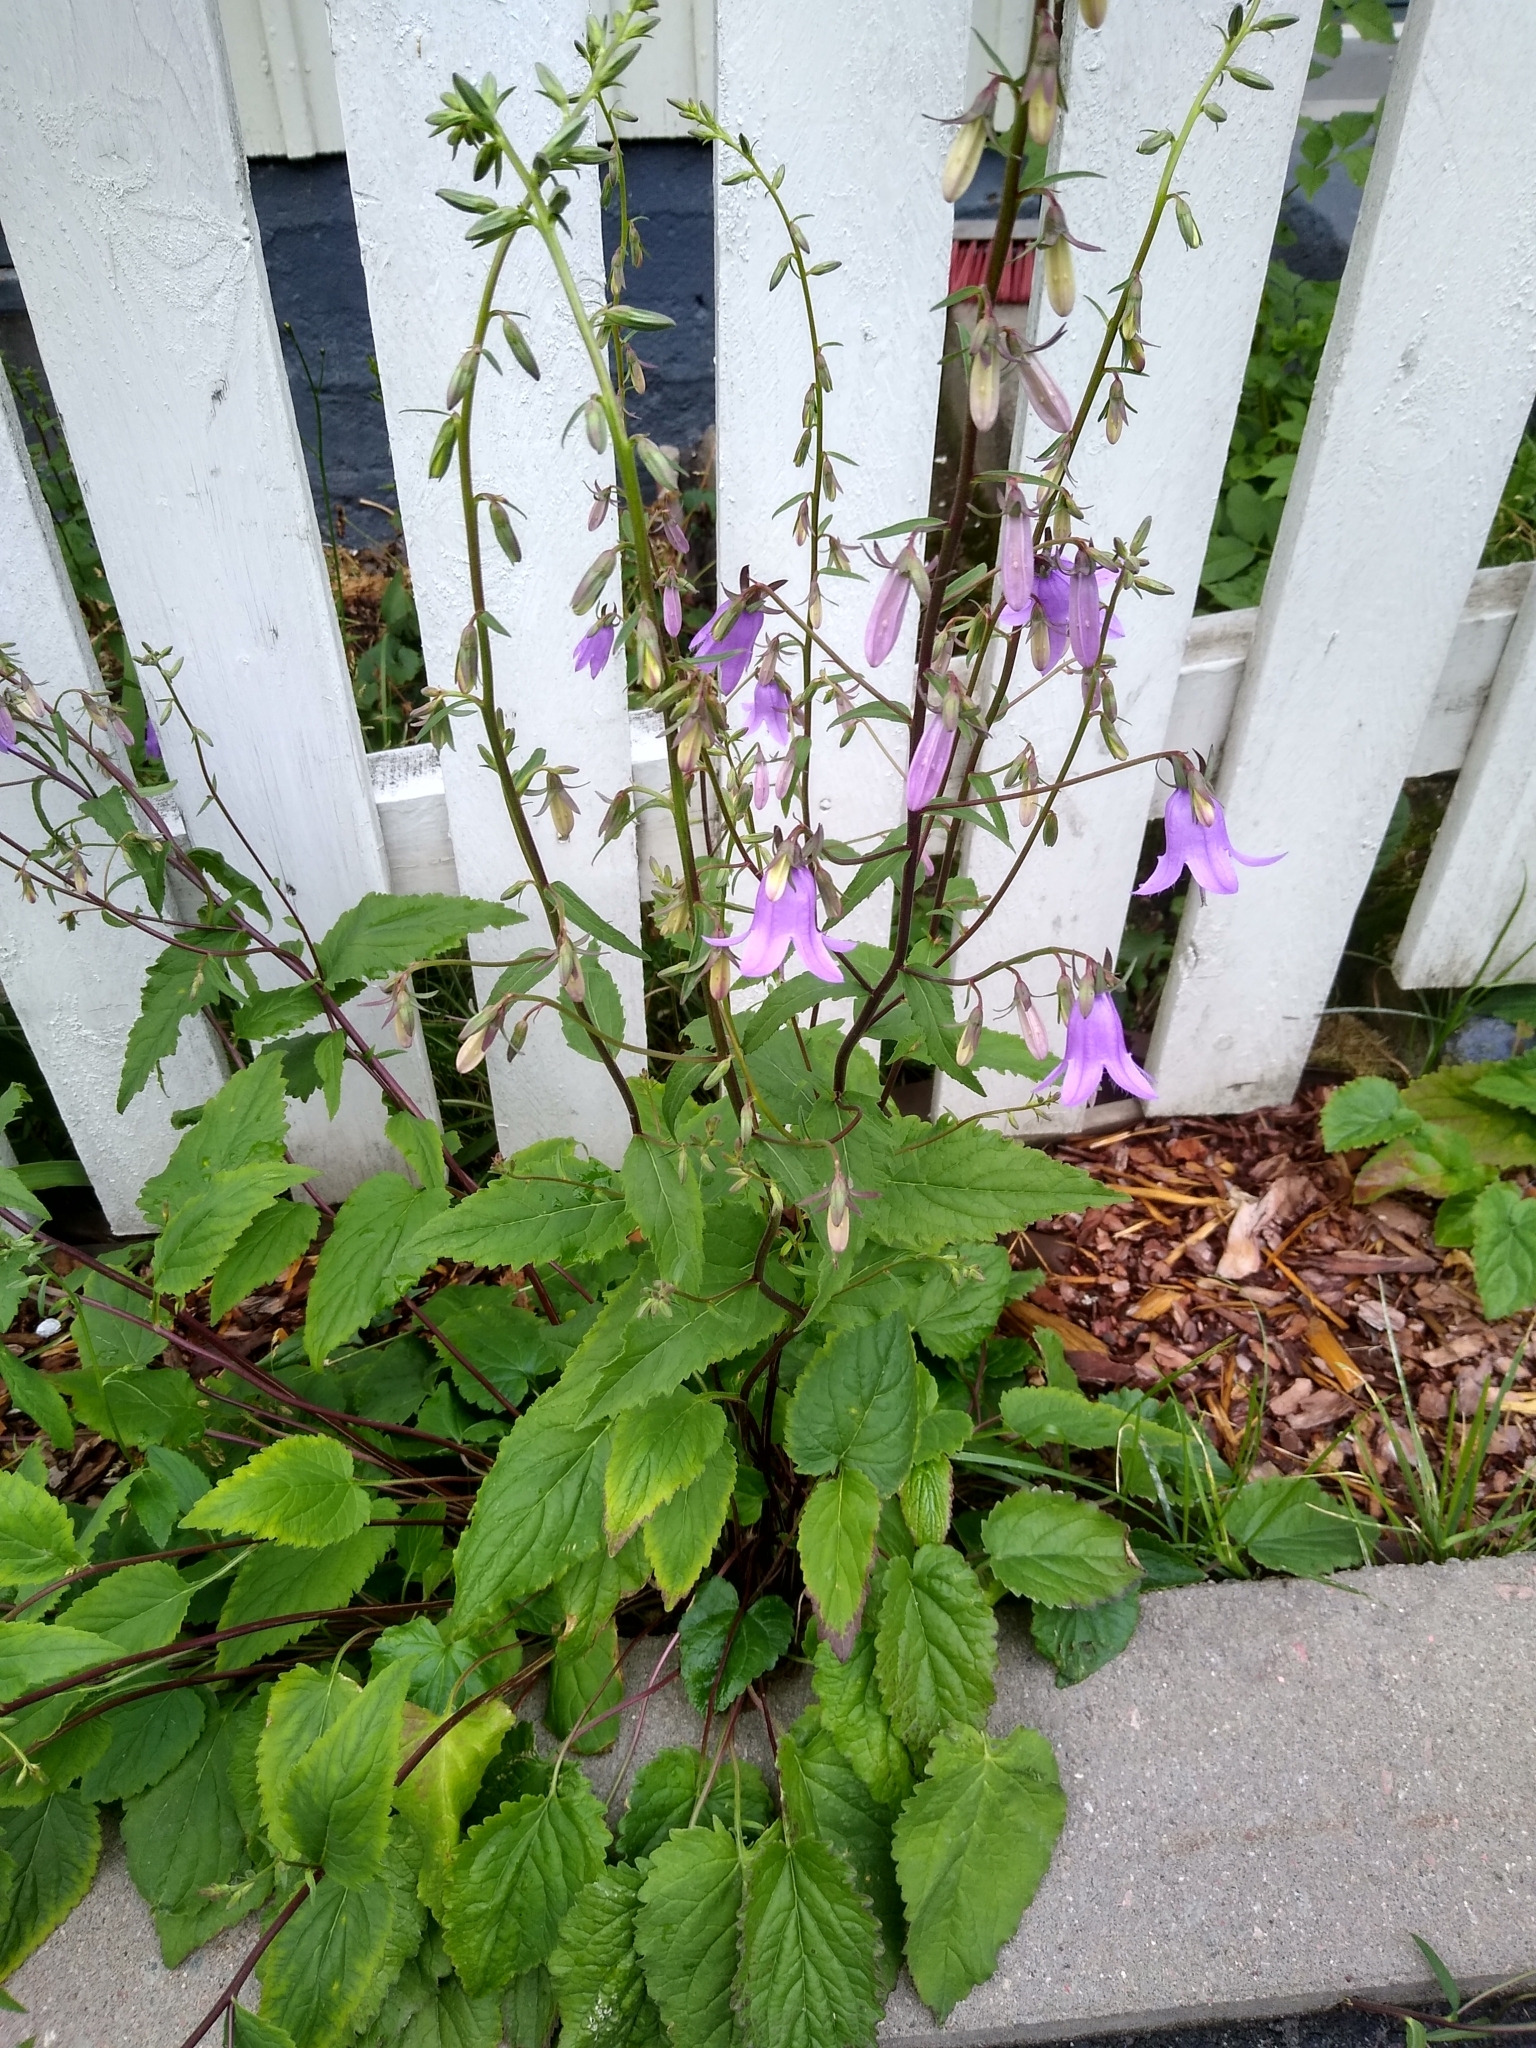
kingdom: Plantae
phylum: Tracheophyta
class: Magnoliopsida
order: Asterales
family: Campanulaceae
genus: Campanula
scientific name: Campanula rapunculoides
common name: Creeping bellflower
